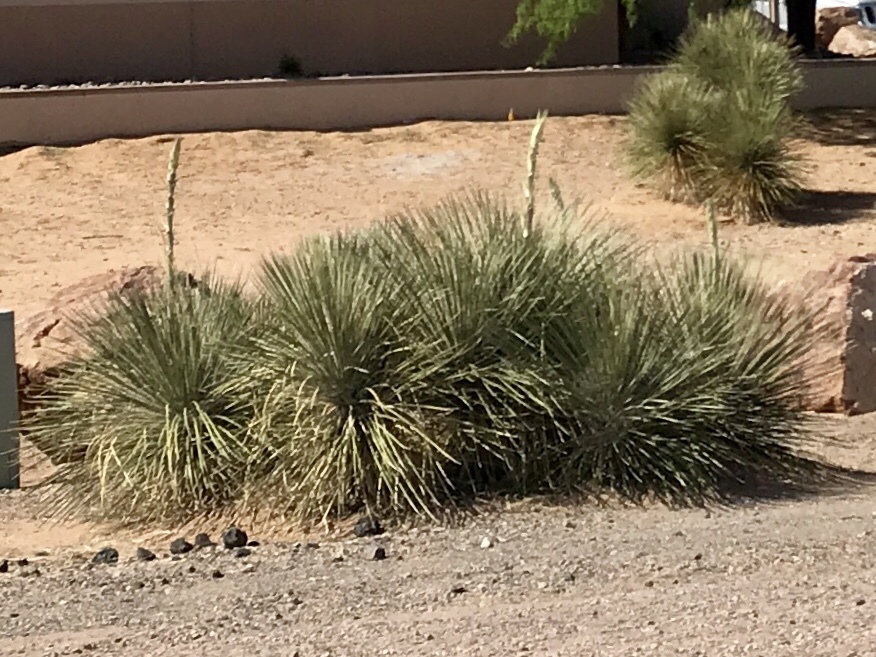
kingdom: Plantae
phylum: Tracheophyta
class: Liliopsida
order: Asparagales
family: Asparagaceae
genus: Yucca
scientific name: Yucca elata
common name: Palmella
